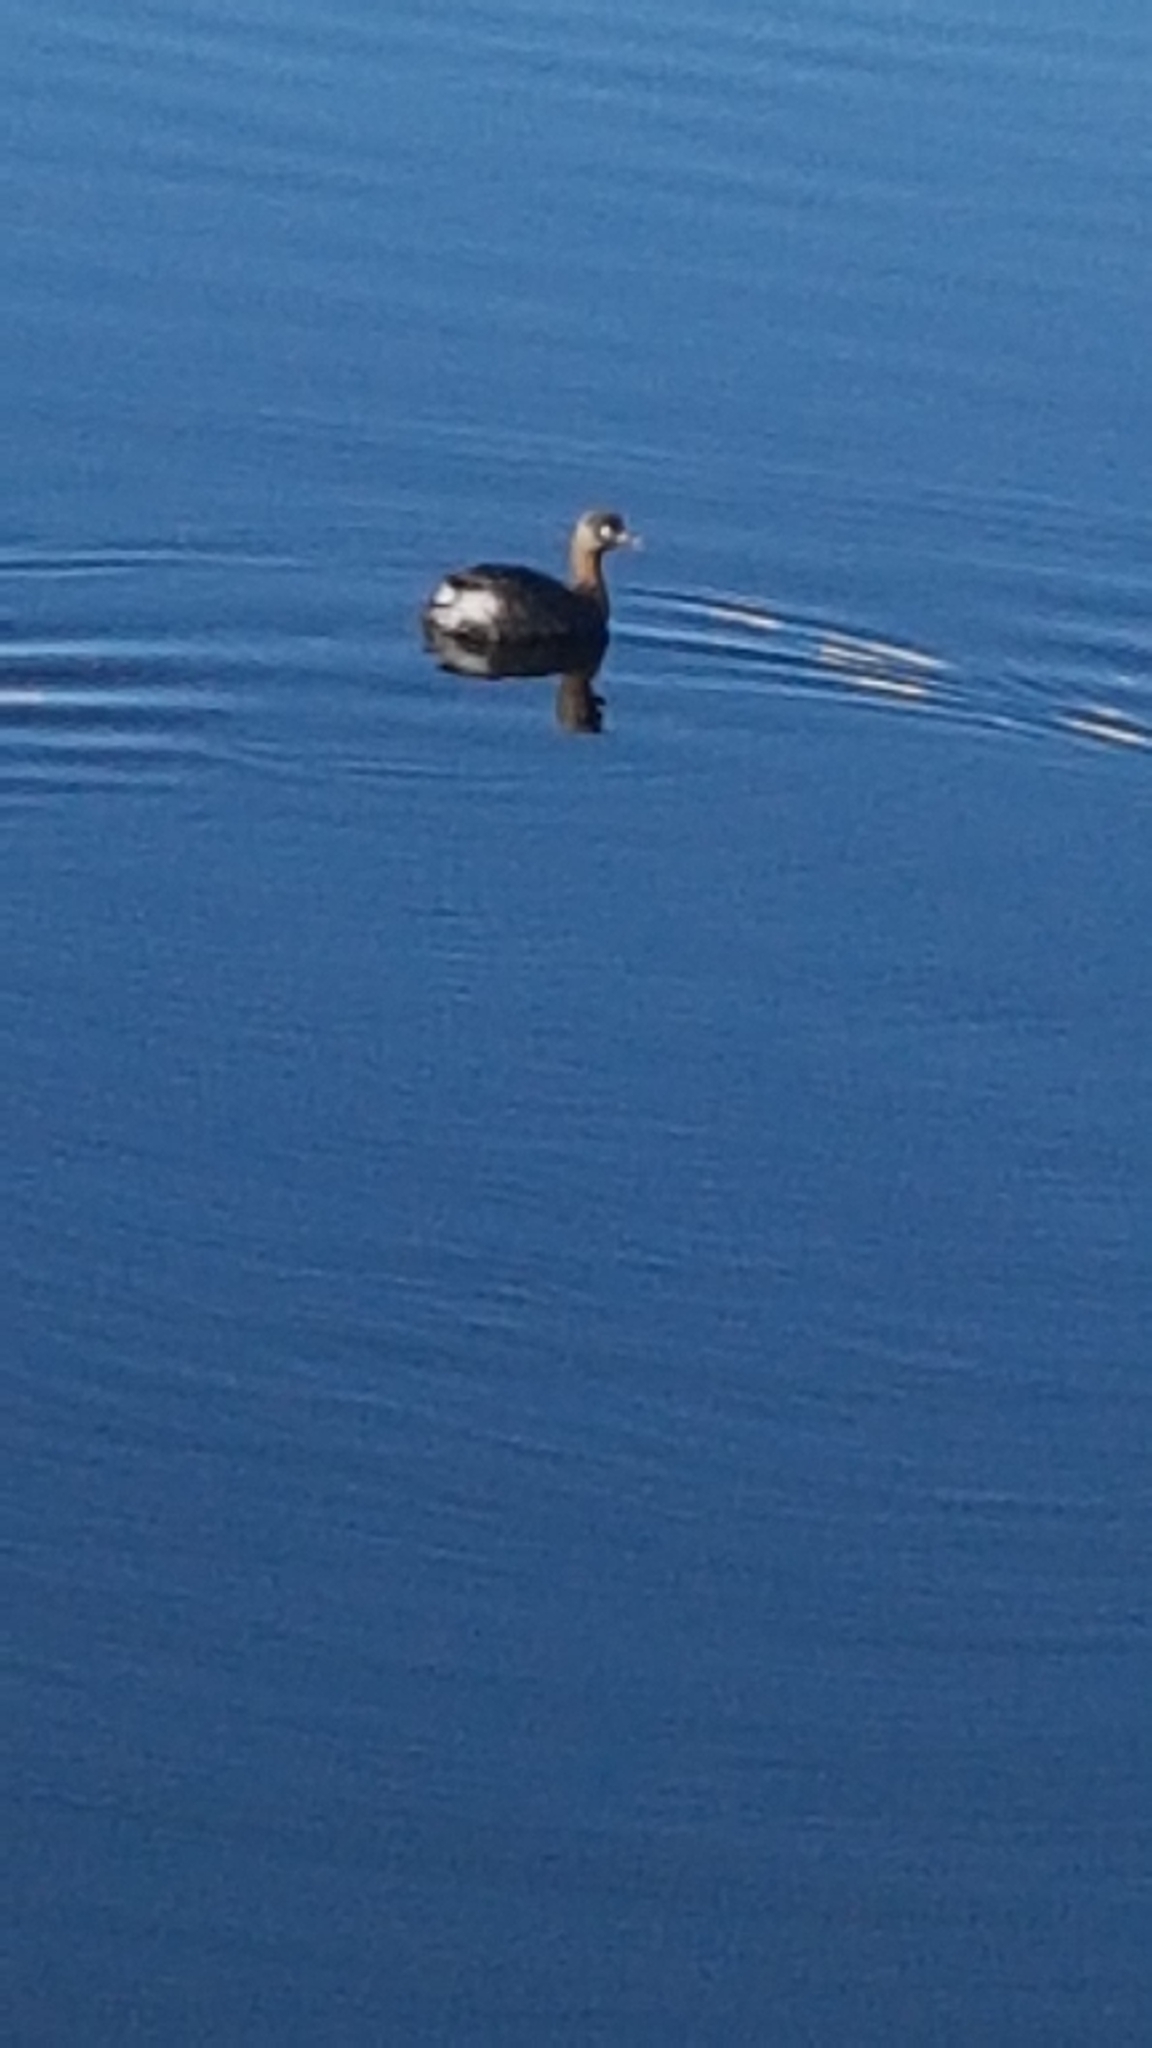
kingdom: Animalia
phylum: Chordata
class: Aves
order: Podicipediformes
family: Podicipedidae
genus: Poliocephalus
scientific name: Poliocephalus rufopectus
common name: New zealand grebe
